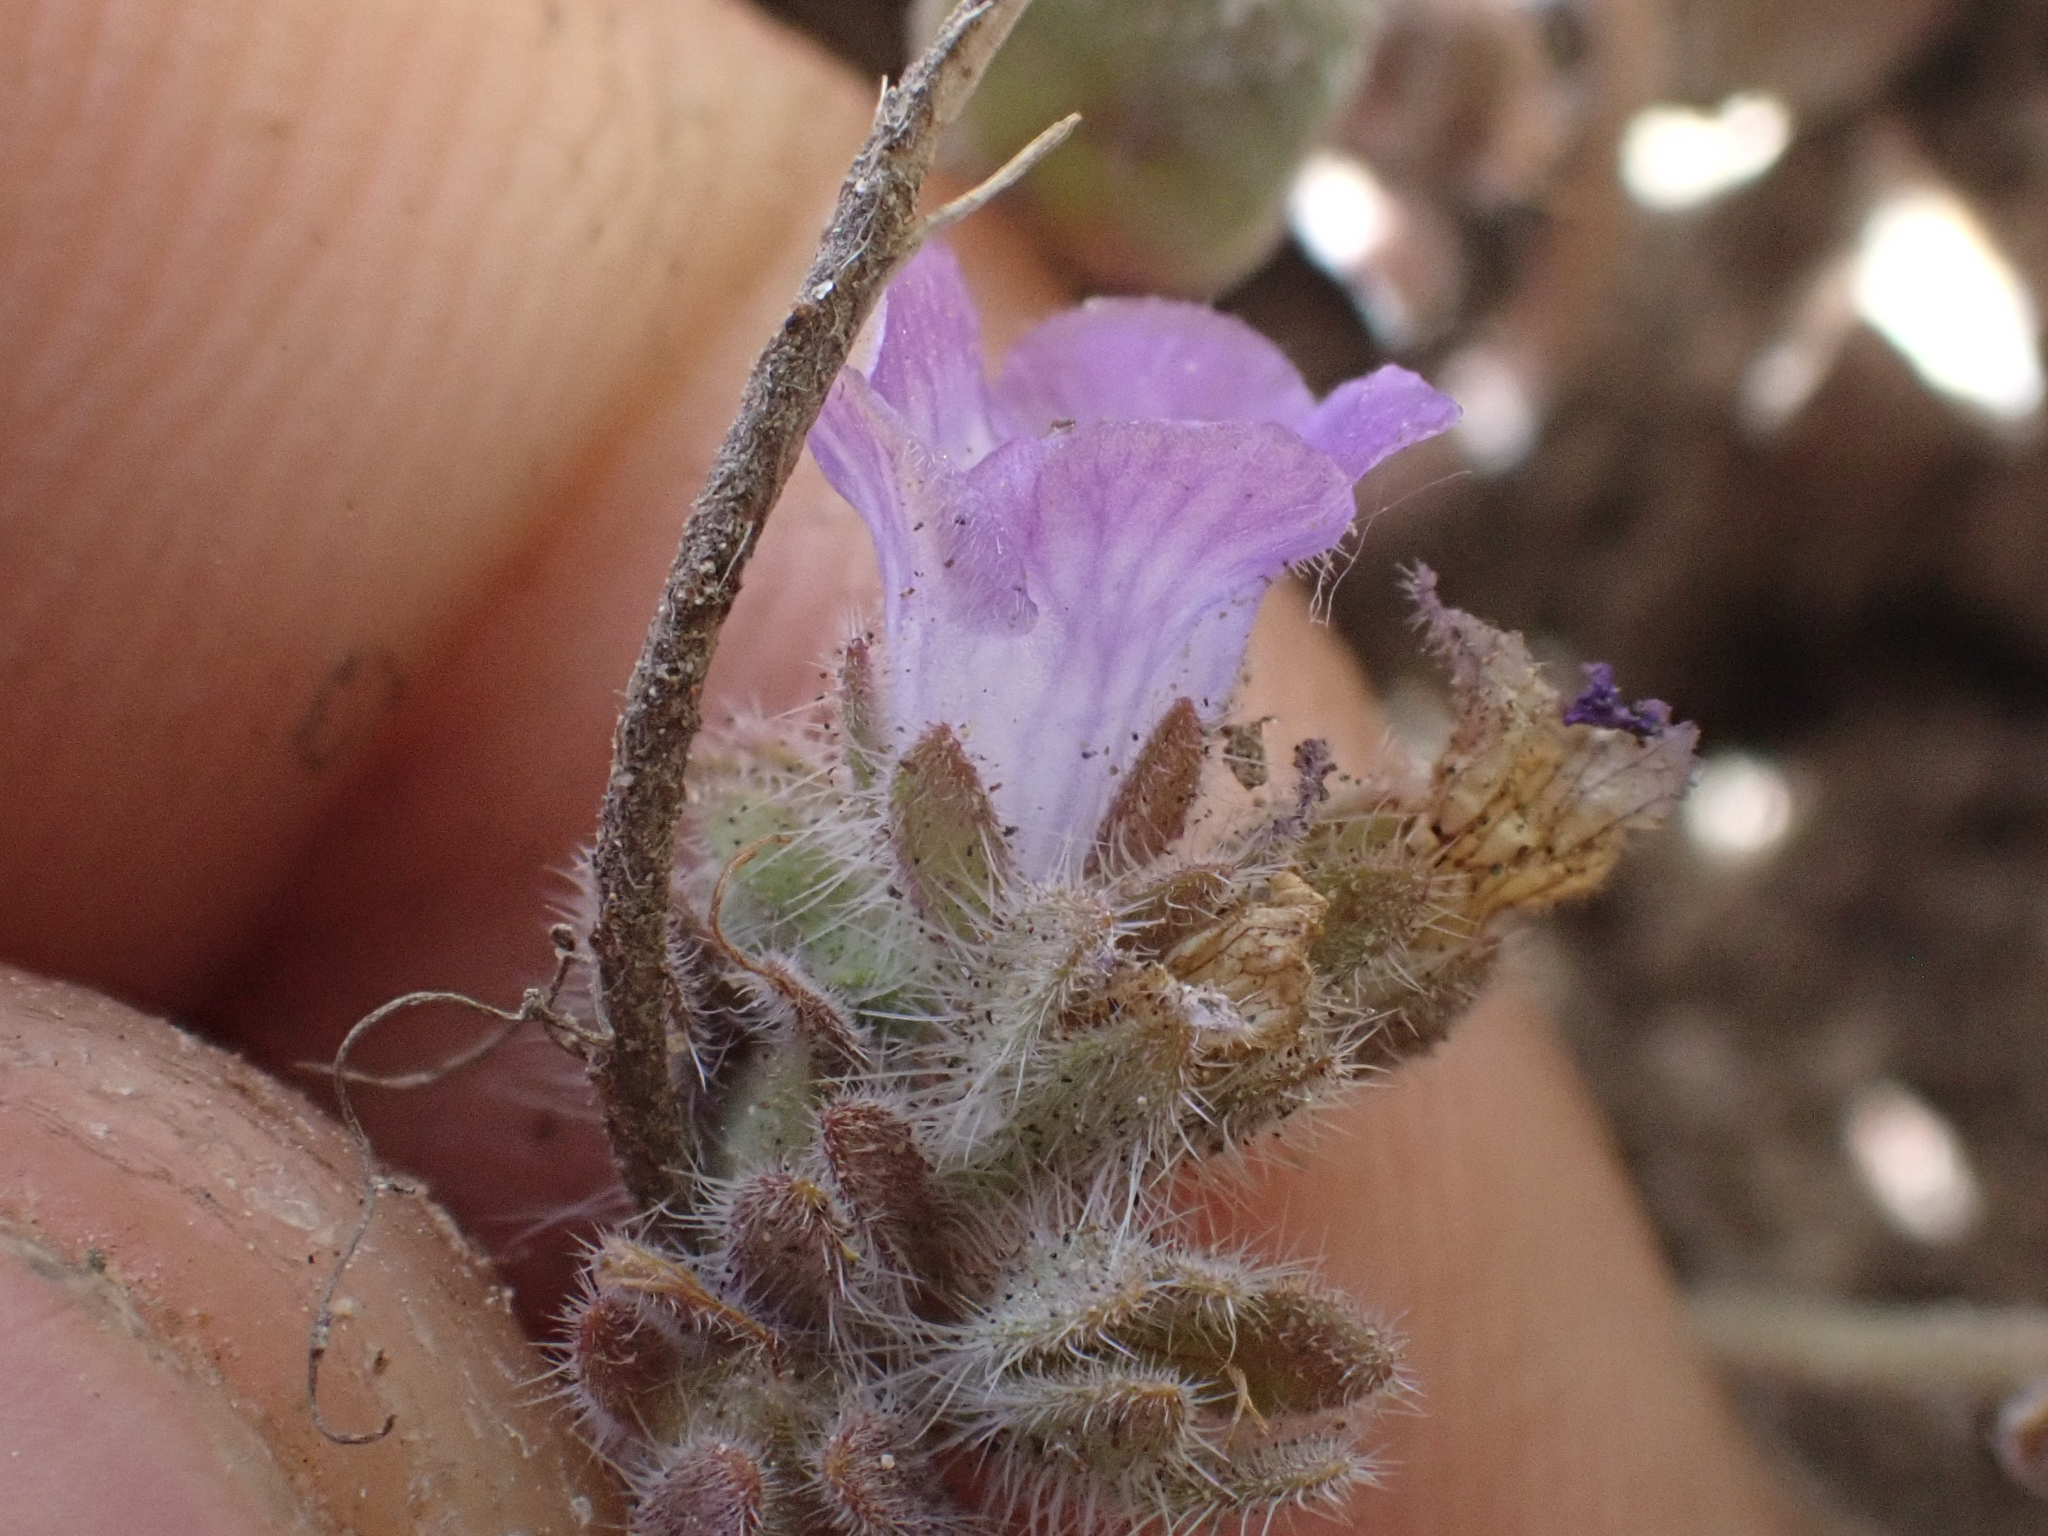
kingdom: Plantae
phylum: Tracheophyta
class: Magnoliopsida
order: Boraginales
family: Hydrophyllaceae
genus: Phacelia
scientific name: Phacelia curvipes
